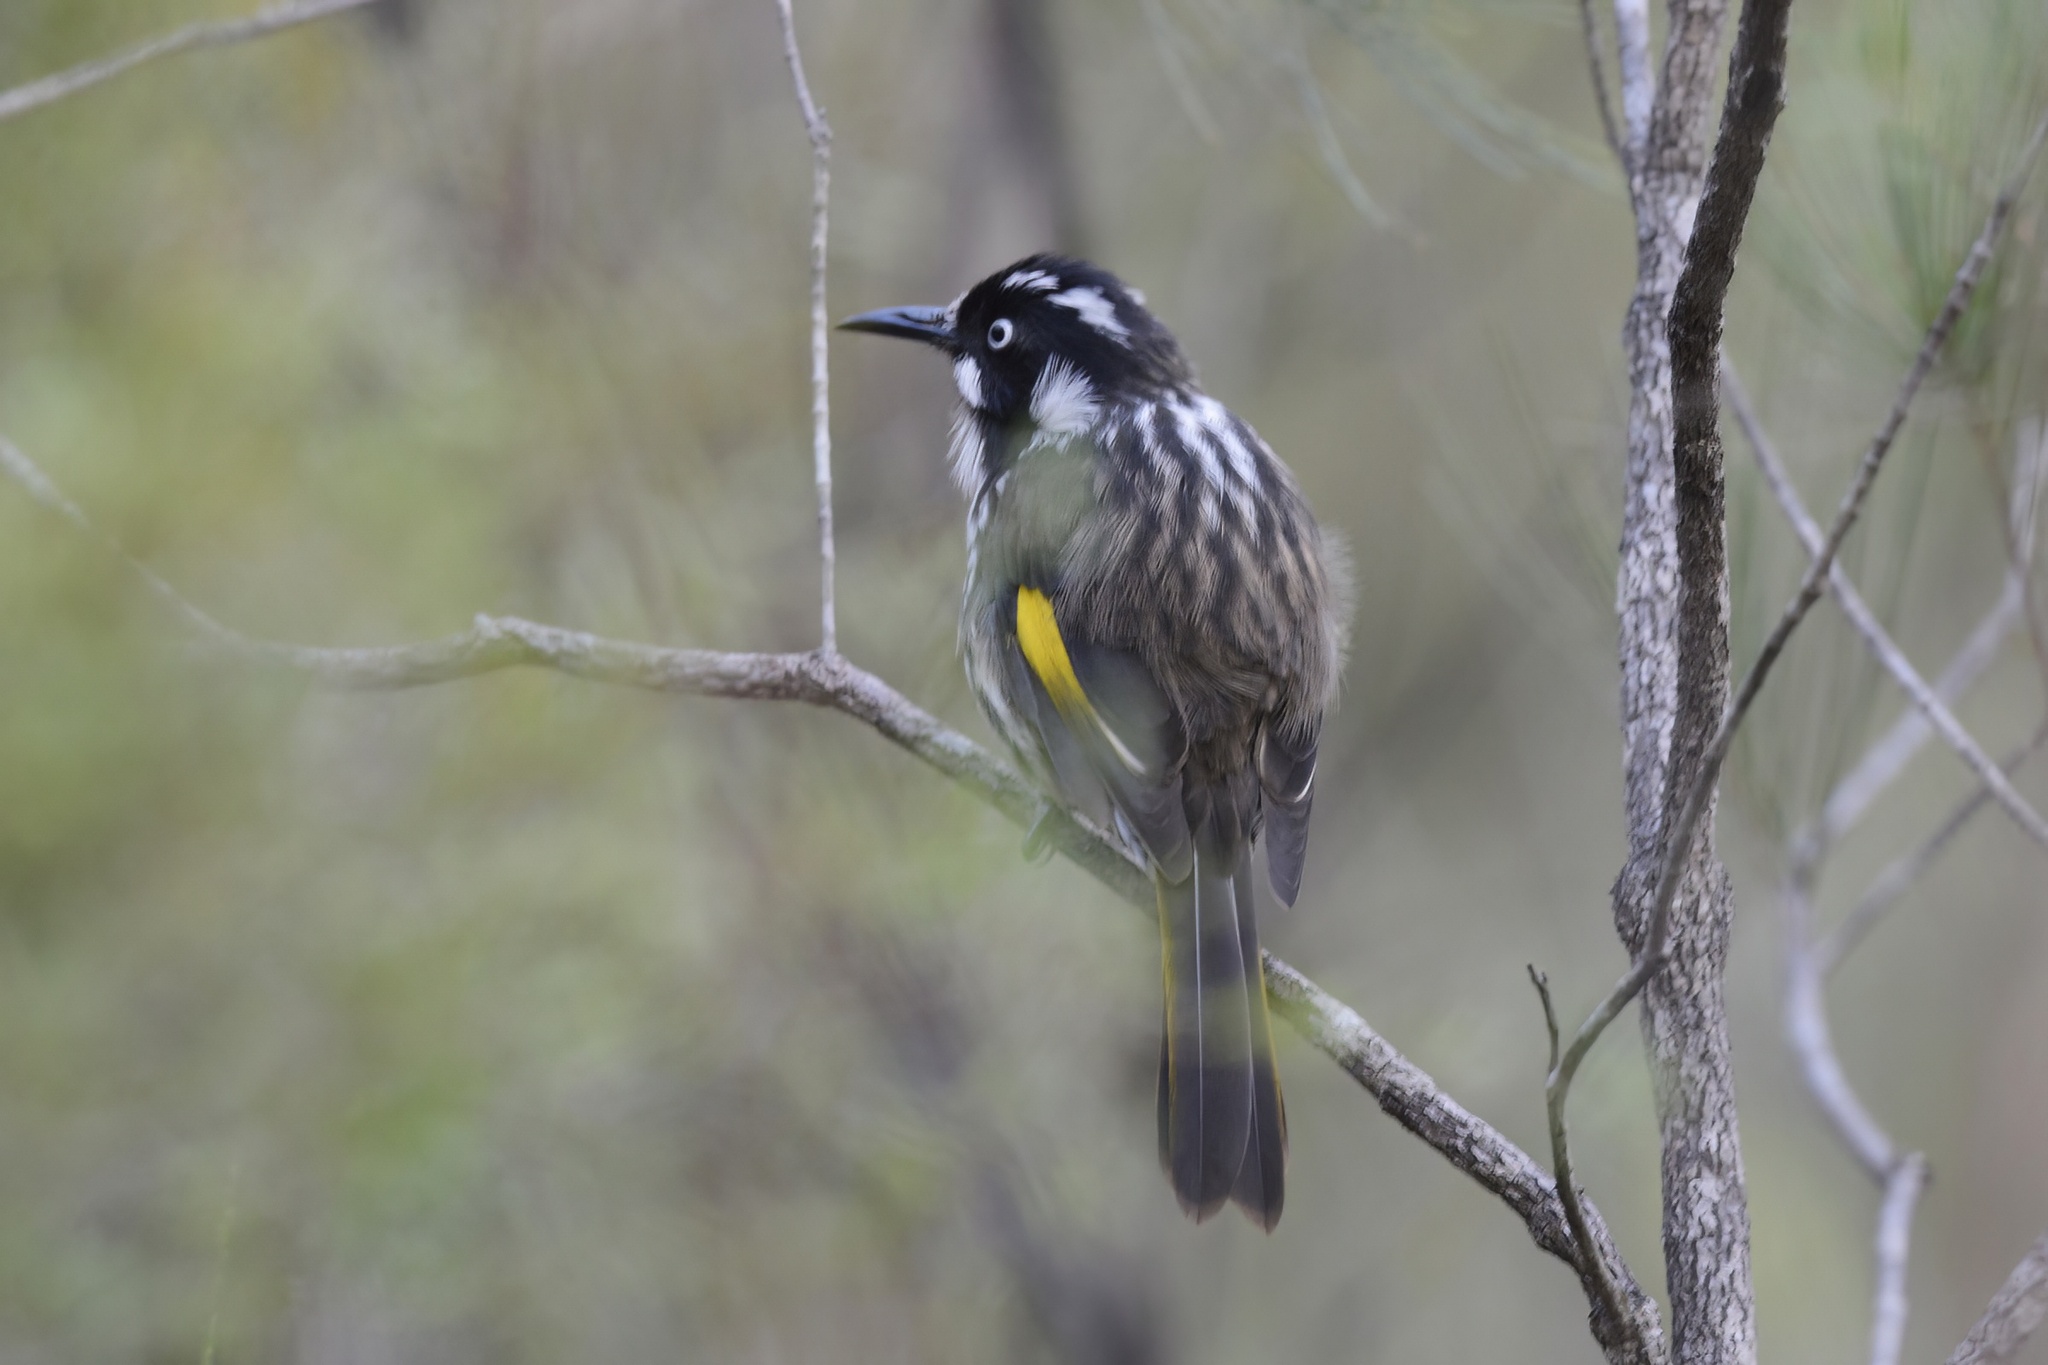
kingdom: Animalia
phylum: Chordata
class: Aves
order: Passeriformes
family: Meliphagidae
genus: Phylidonyris
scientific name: Phylidonyris novaehollandiae
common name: New holland honeyeater
